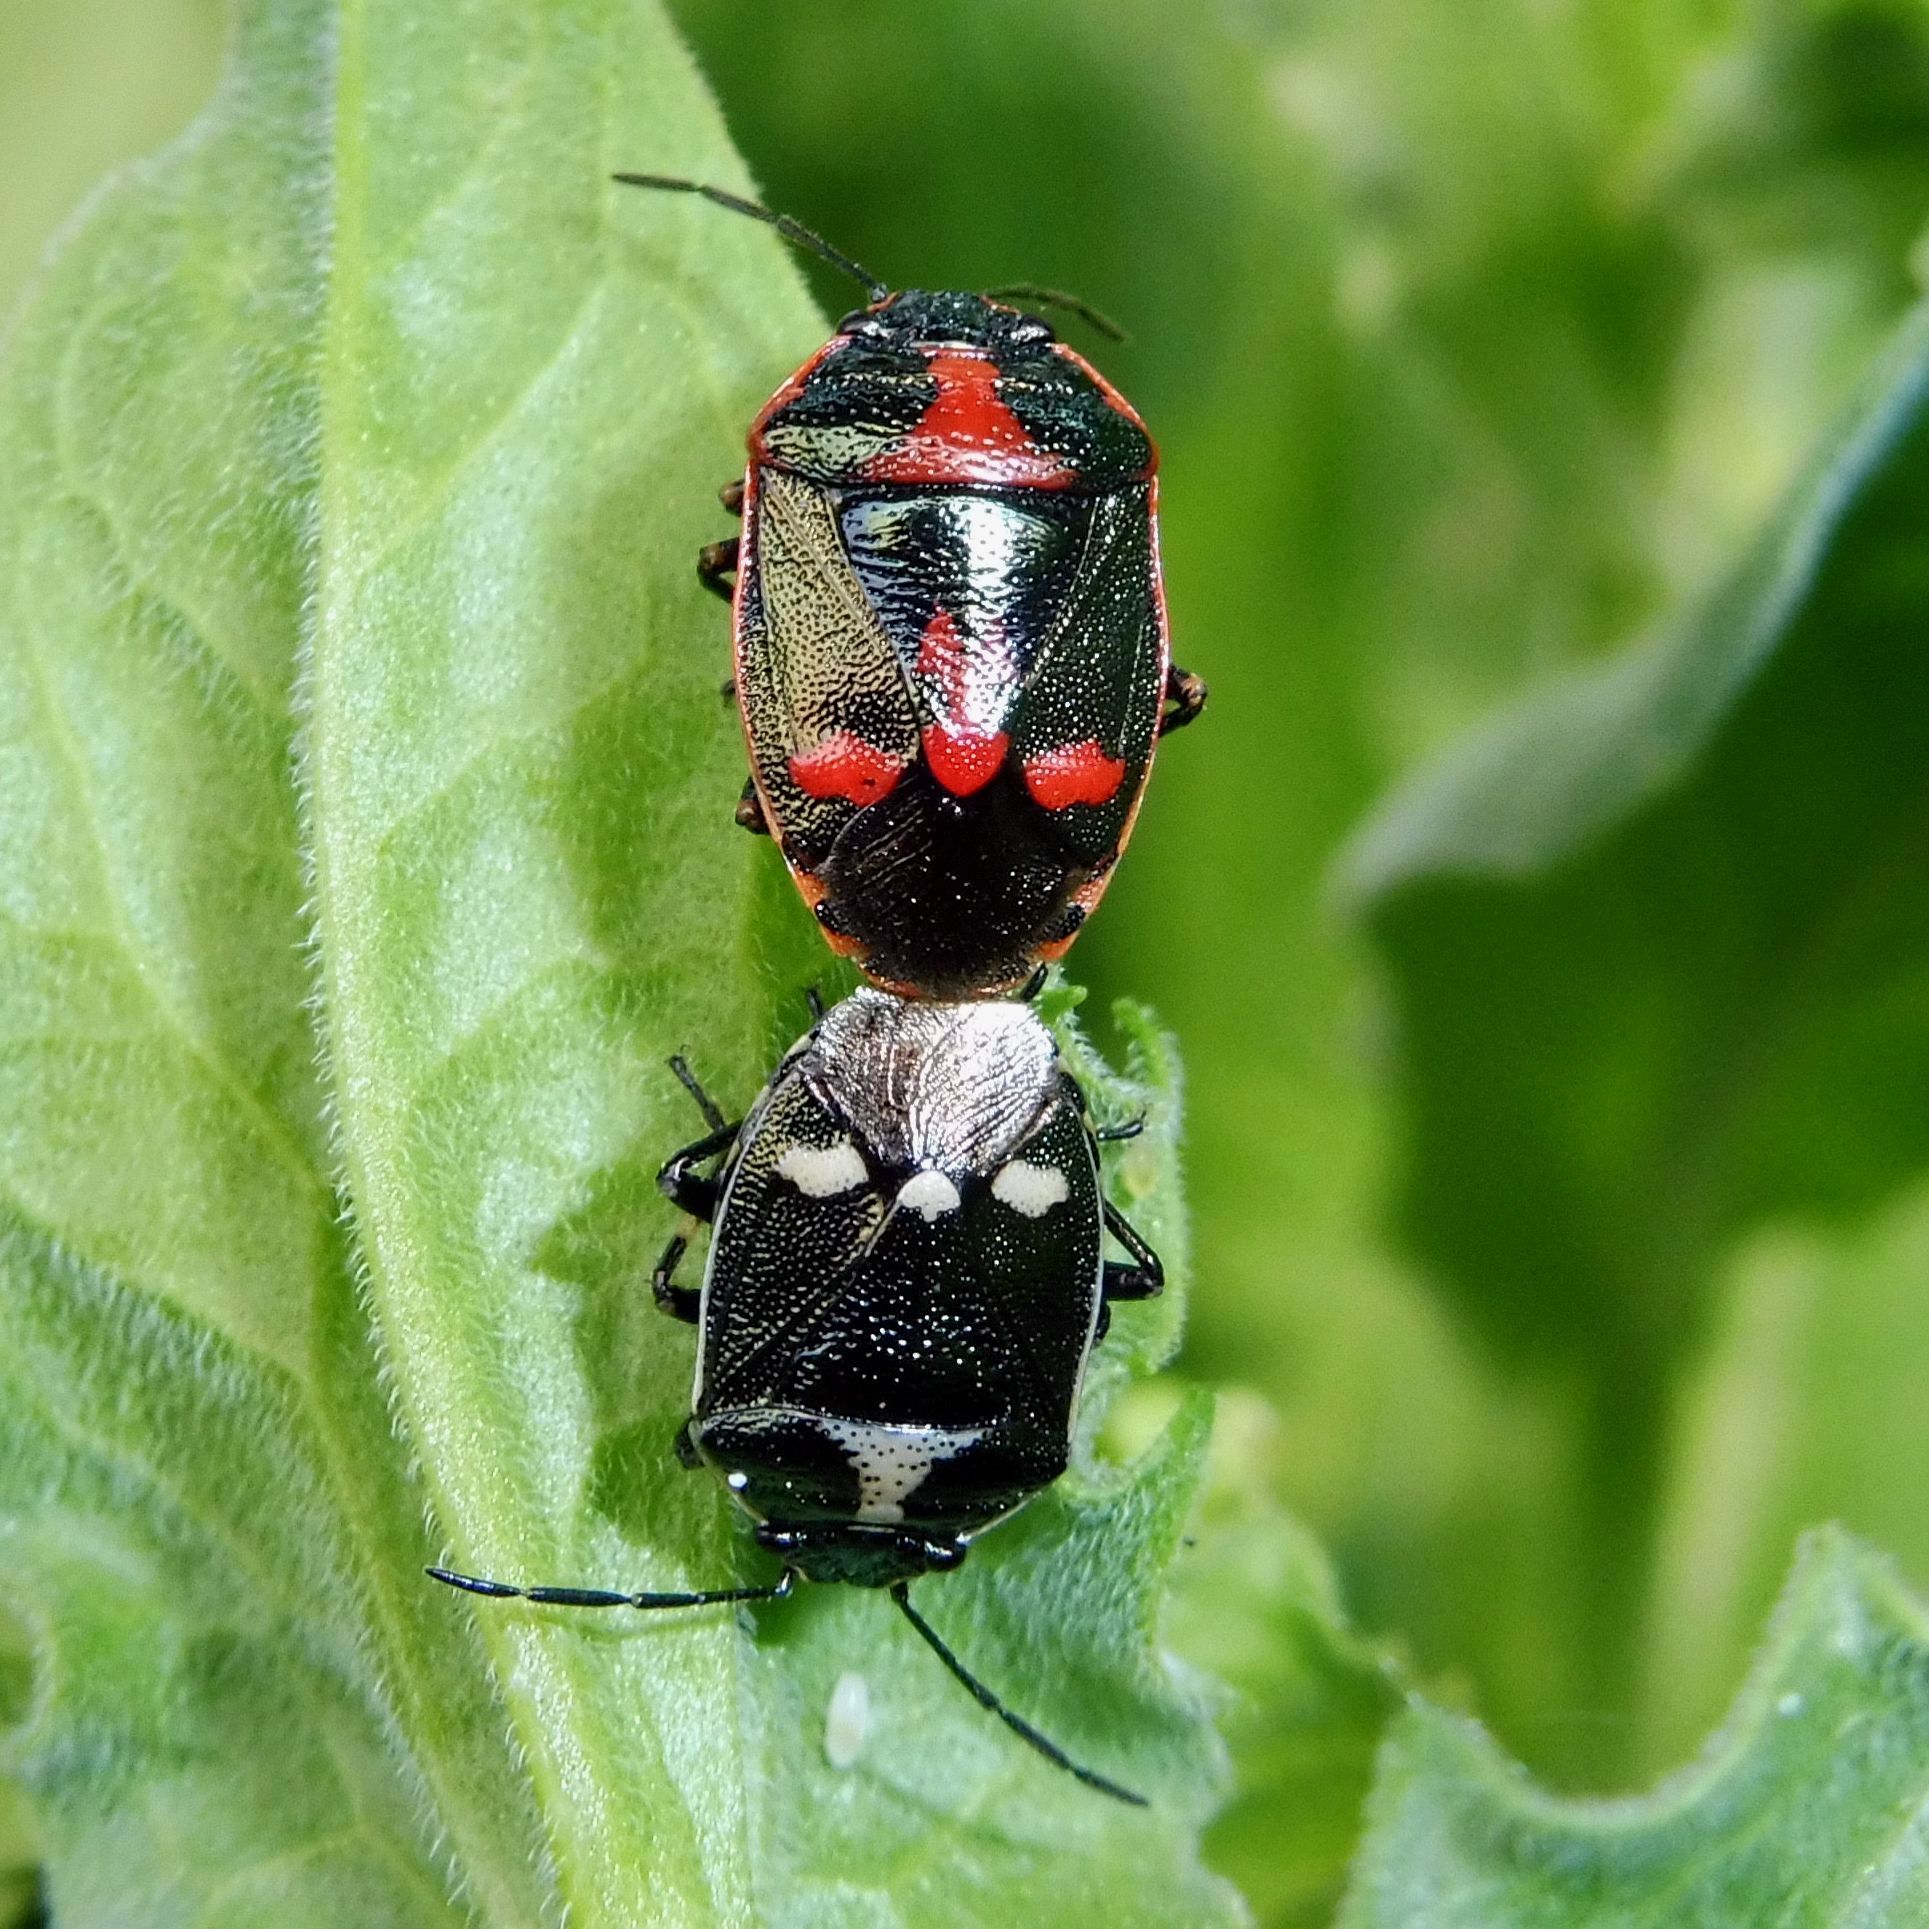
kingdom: Animalia
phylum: Arthropoda
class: Insecta
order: Hemiptera
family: Pentatomidae
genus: Eurydema
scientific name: Eurydema oleracea
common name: Cabbage bug
